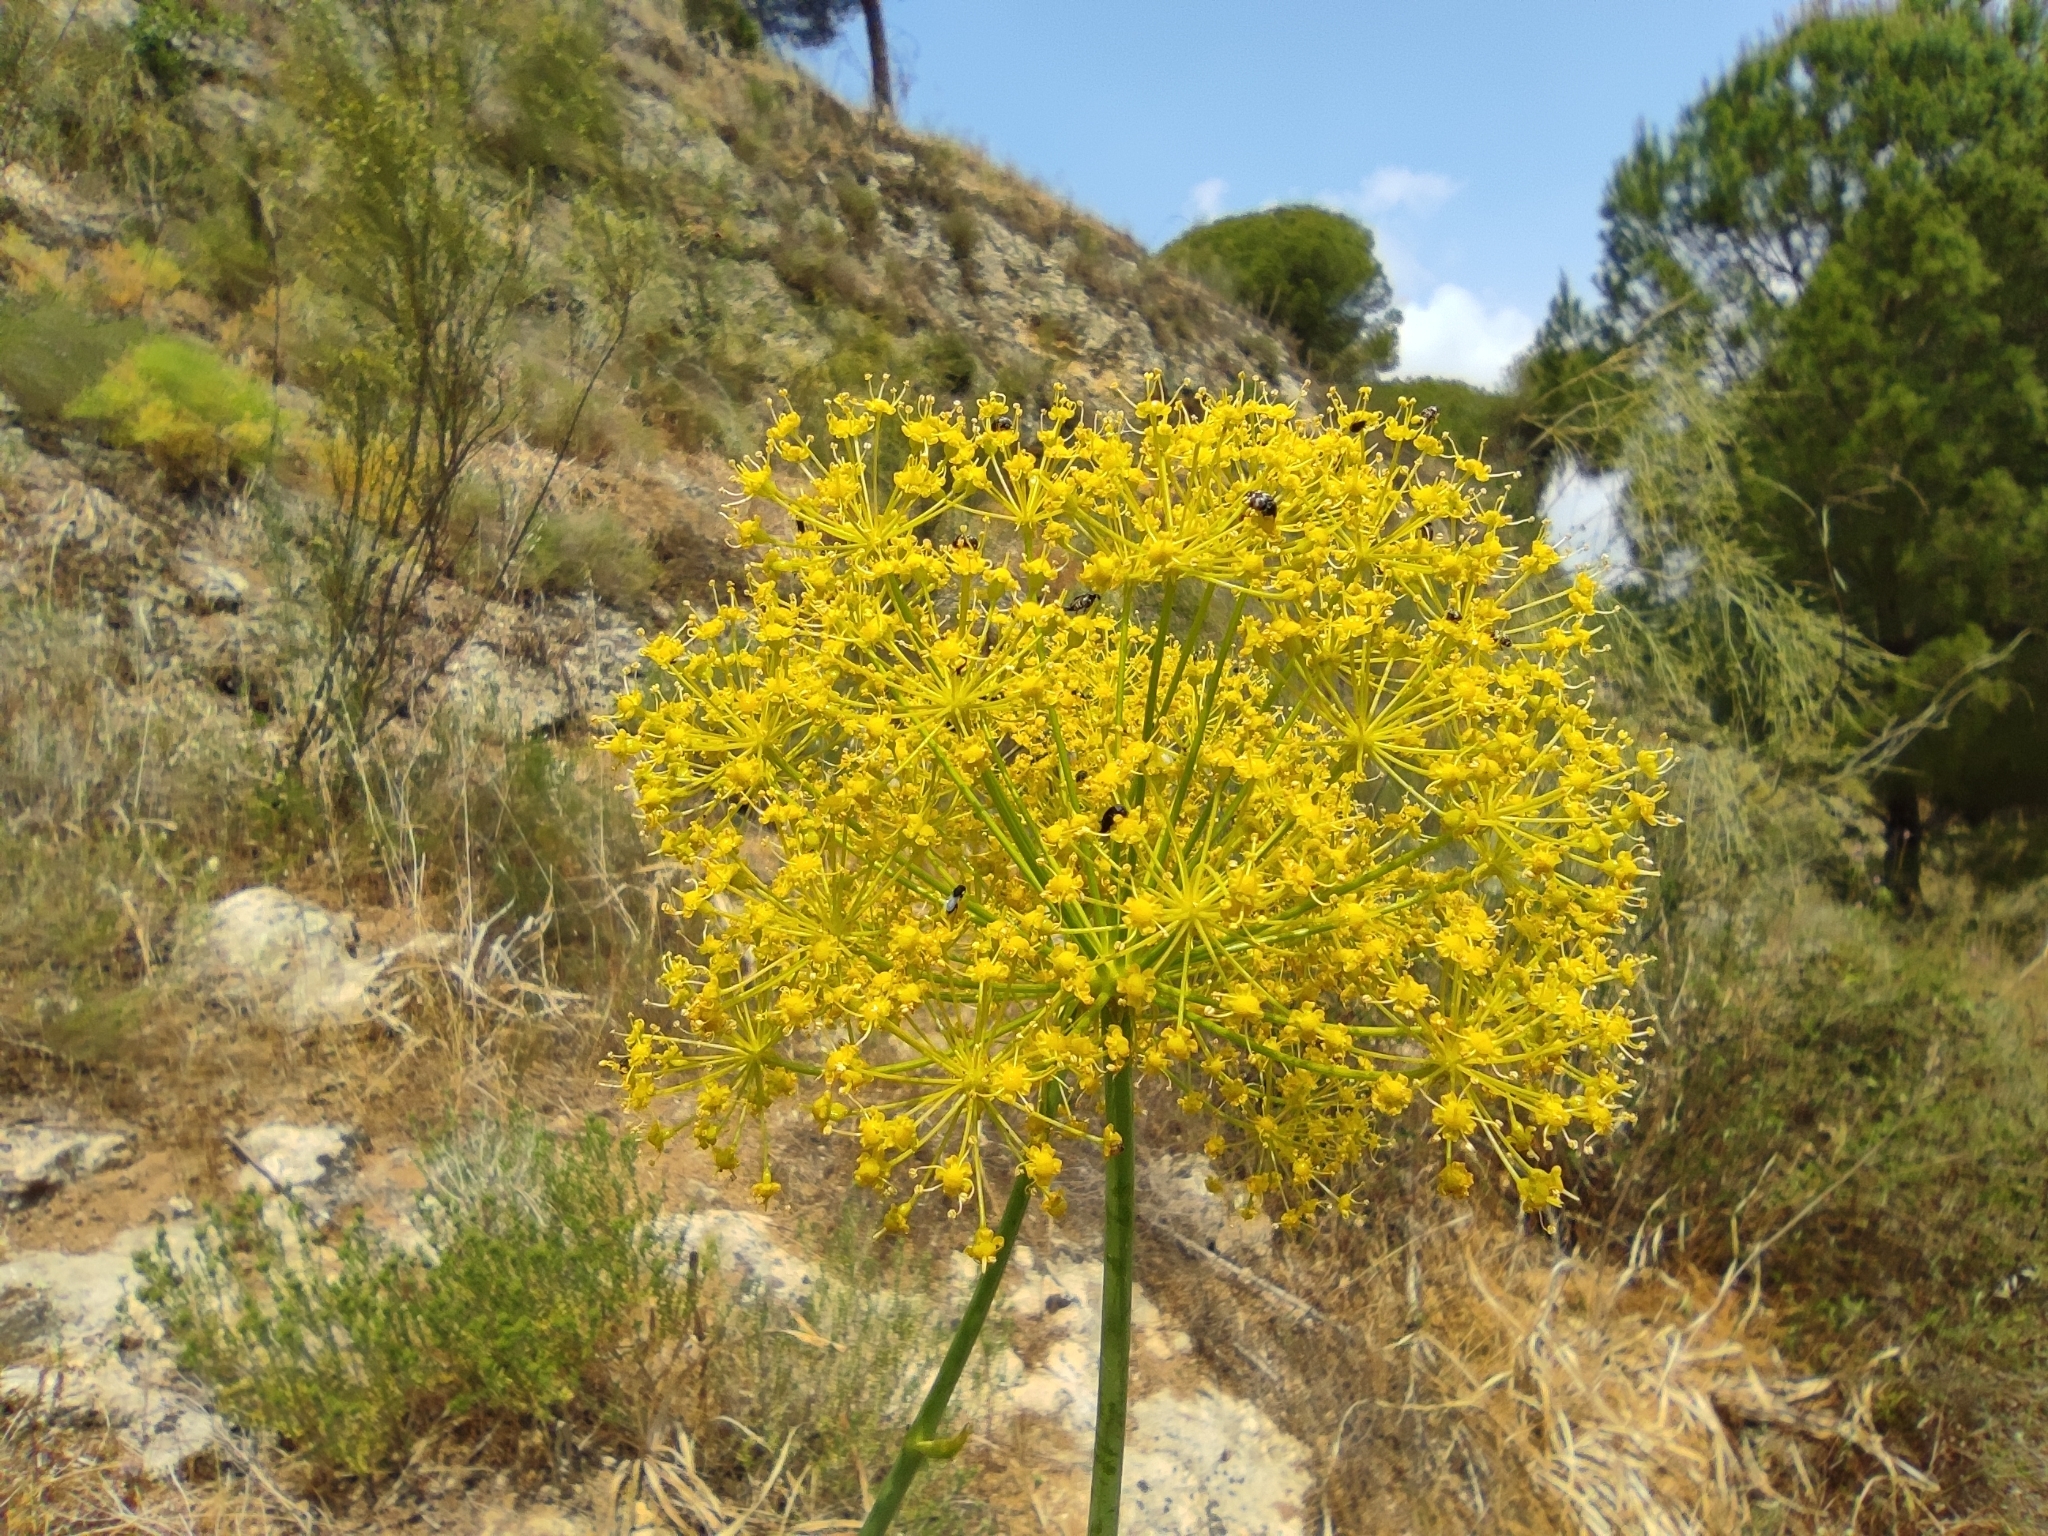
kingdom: Plantae
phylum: Tracheophyta
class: Magnoliopsida
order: Apiales
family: Apiaceae
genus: Thapsia
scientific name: Thapsia tenuifolia
